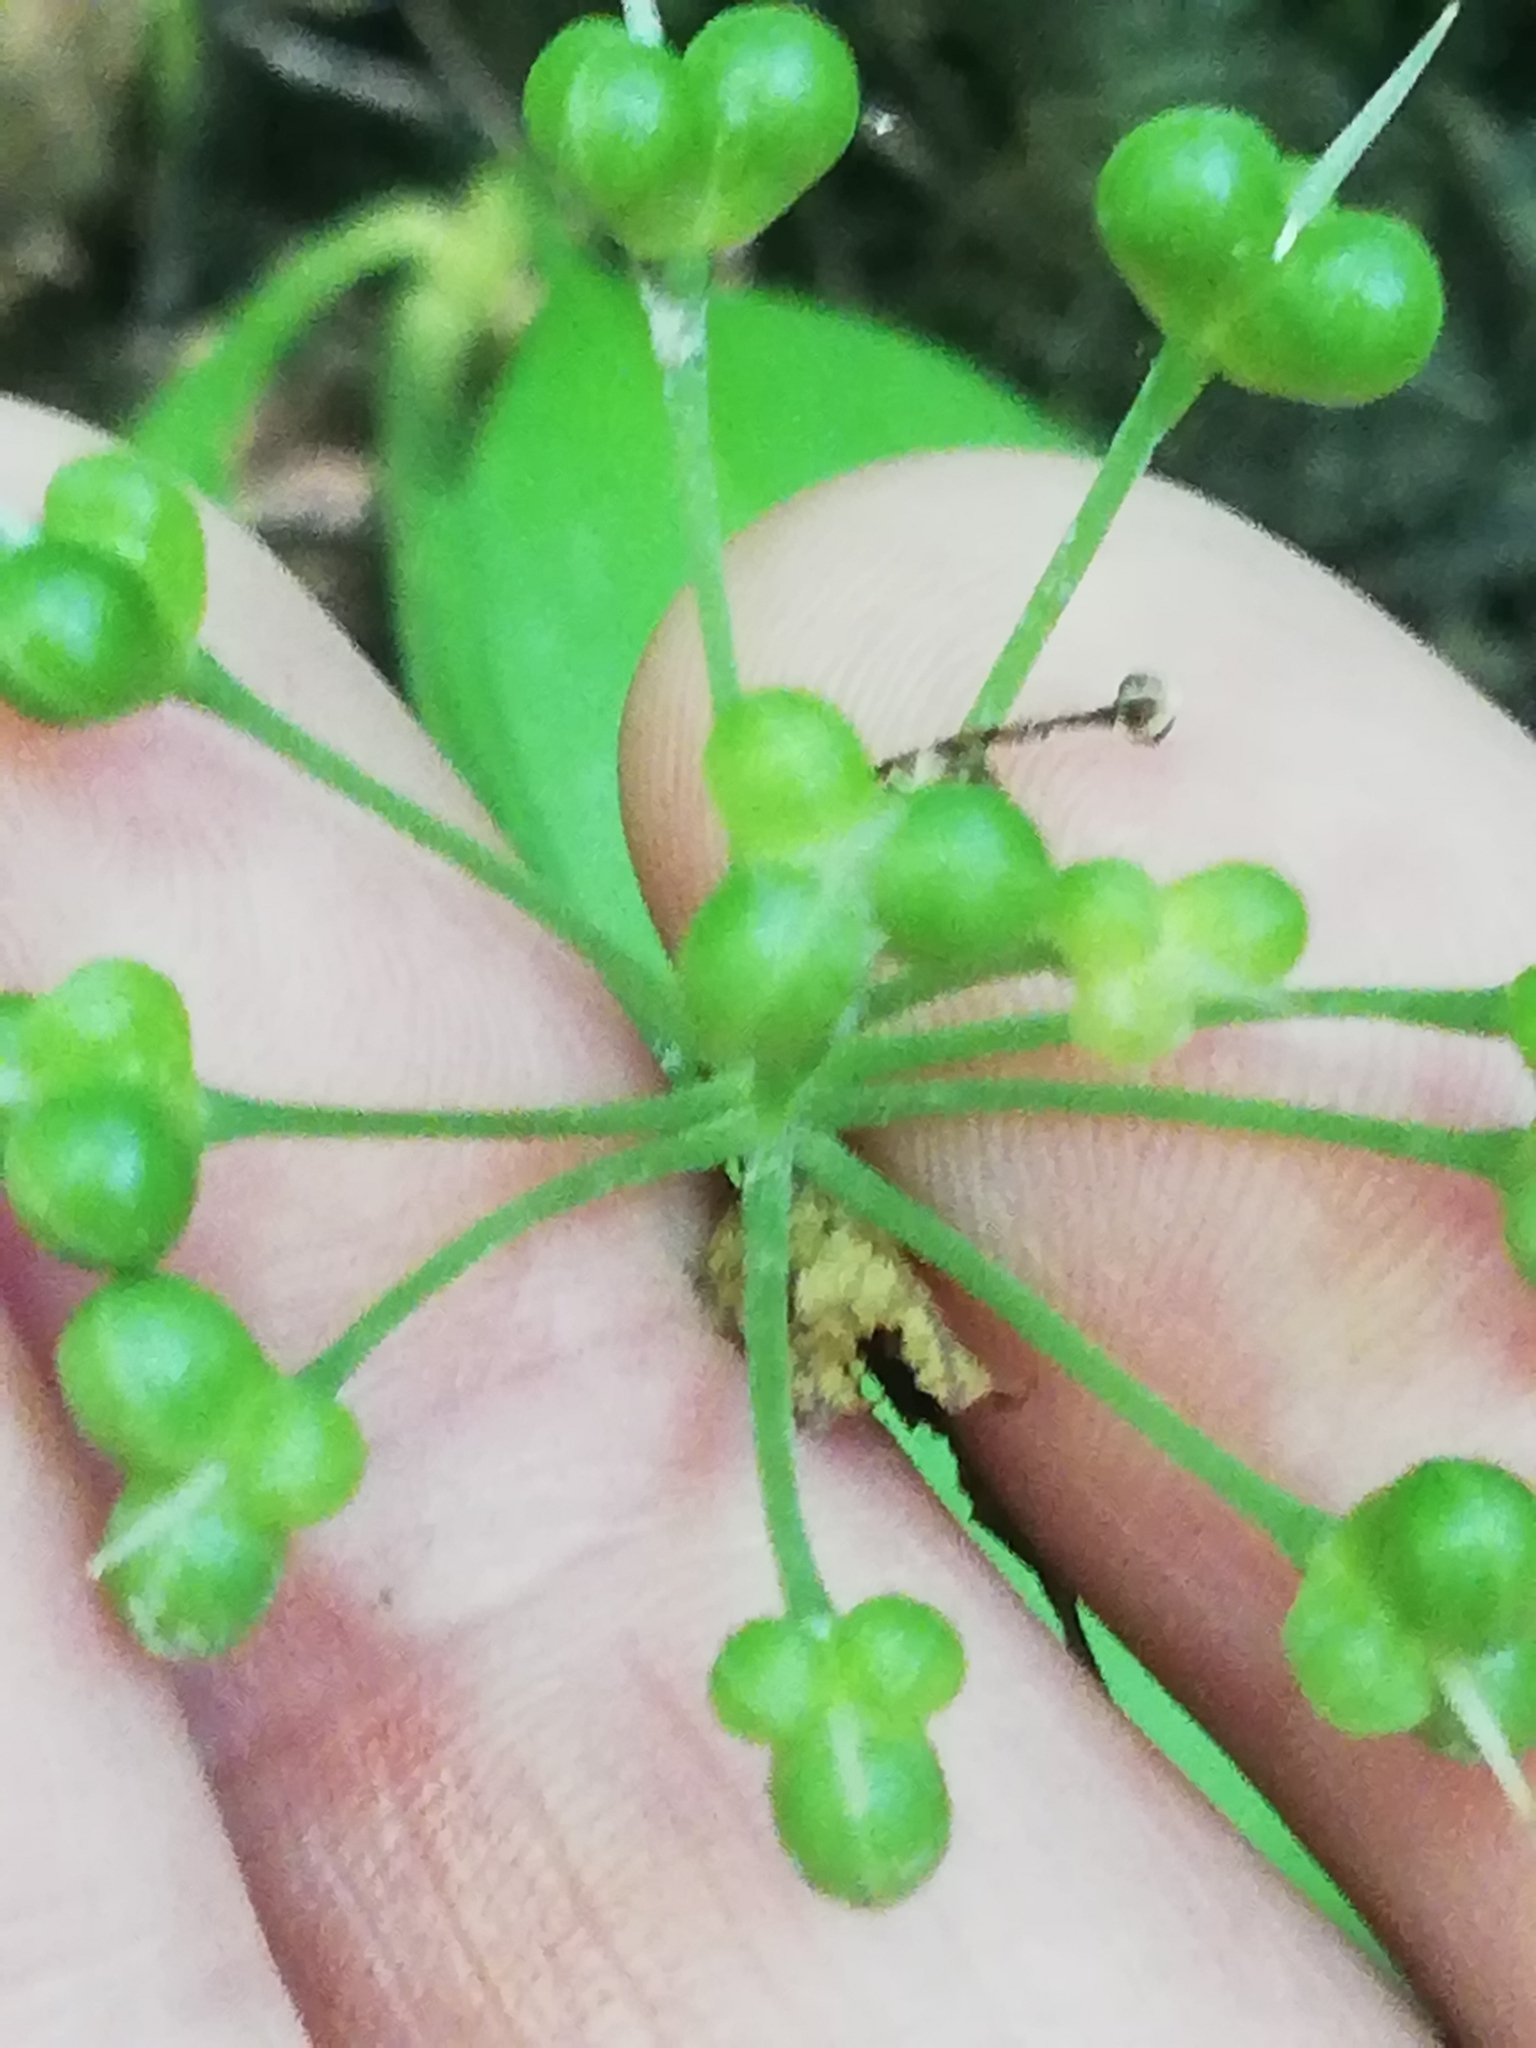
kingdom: Plantae
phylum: Tracheophyta
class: Liliopsida
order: Asparagales
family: Amaryllidaceae
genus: Allium
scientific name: Allium ursinum
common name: Ramsons
